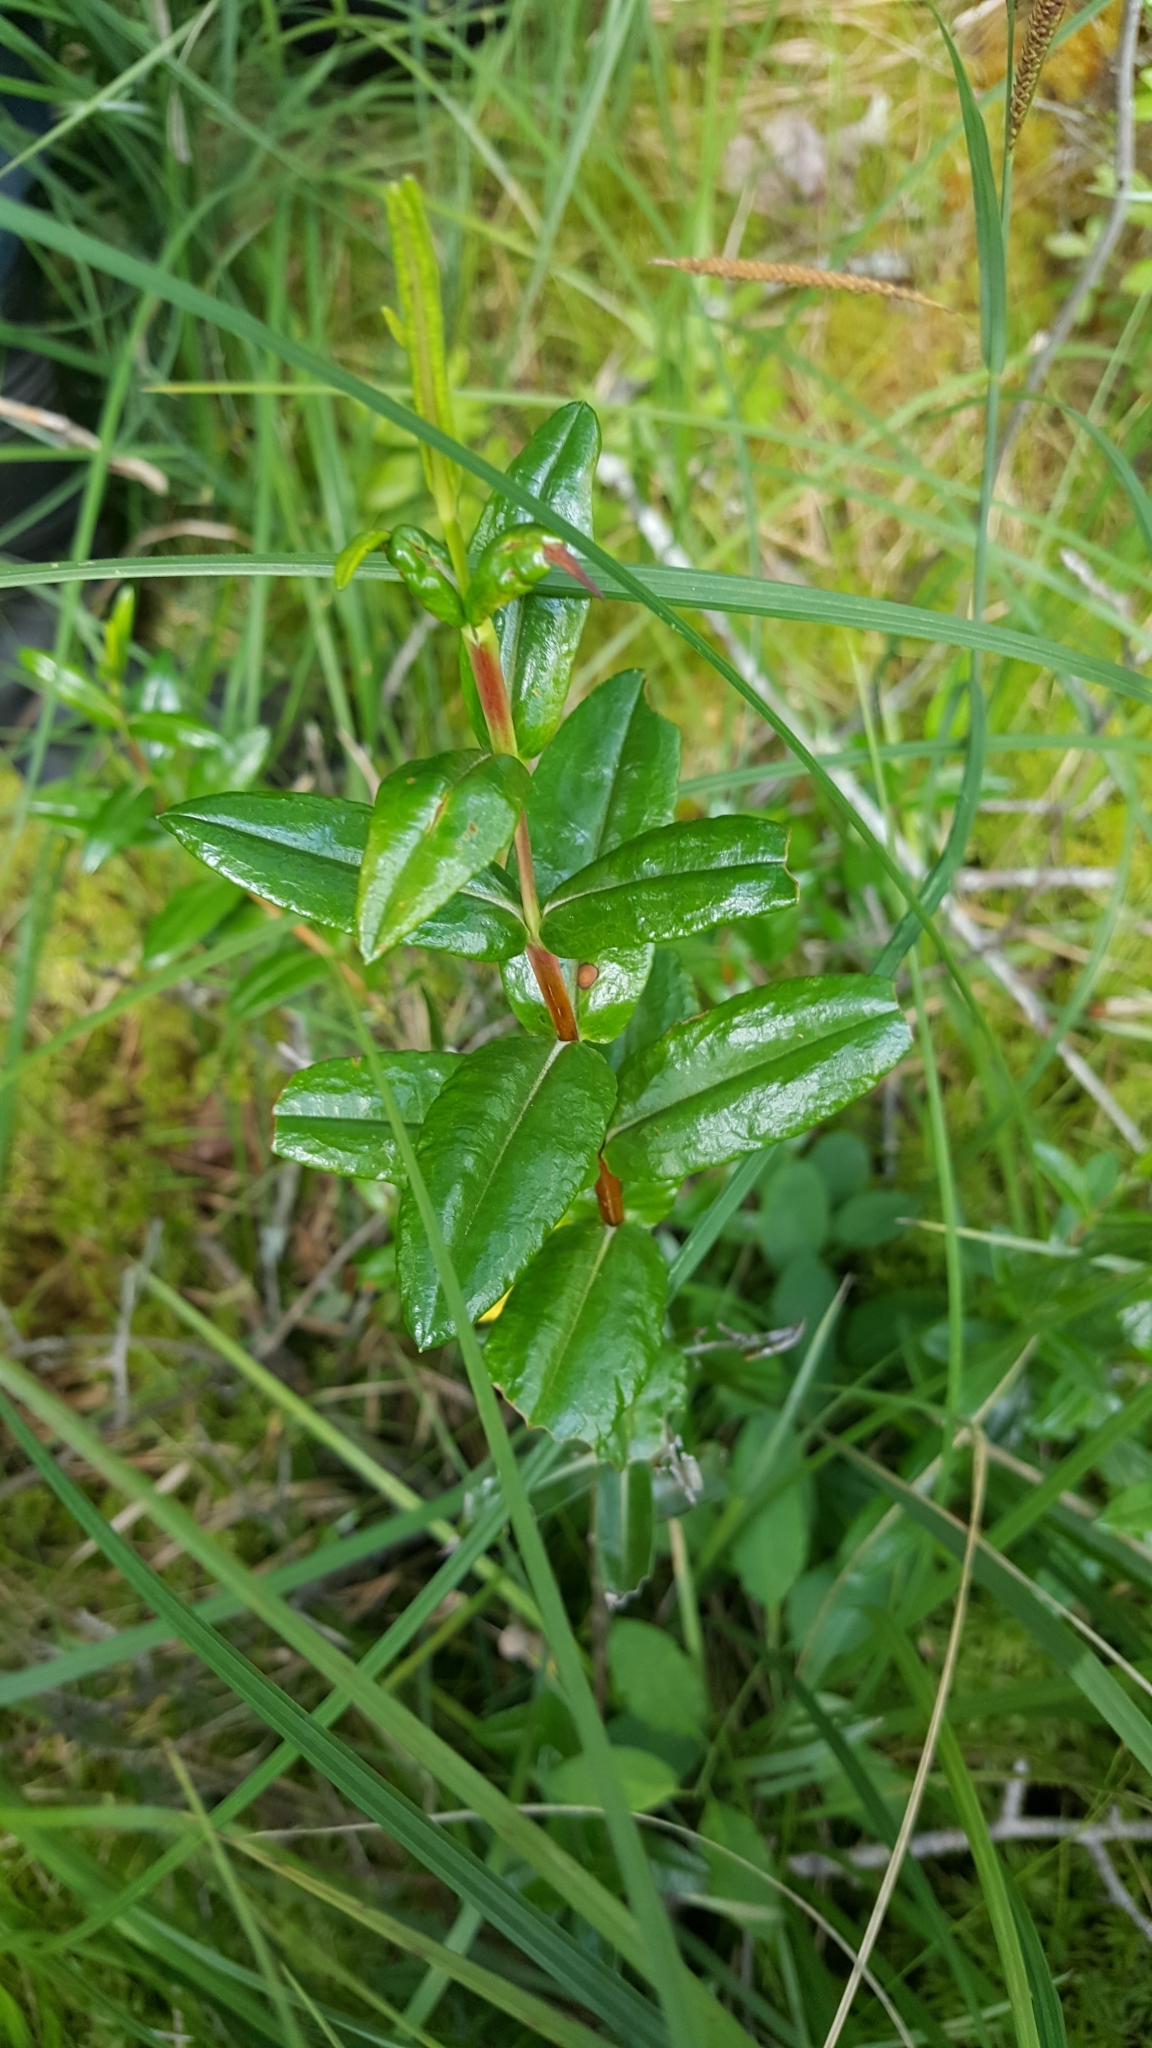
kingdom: Plantae
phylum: Tracheophyta
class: Magnoliopsida
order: Ericales
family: Ericaceae
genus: Kalmia
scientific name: Kalmia polifolia
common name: Bog-laurel
